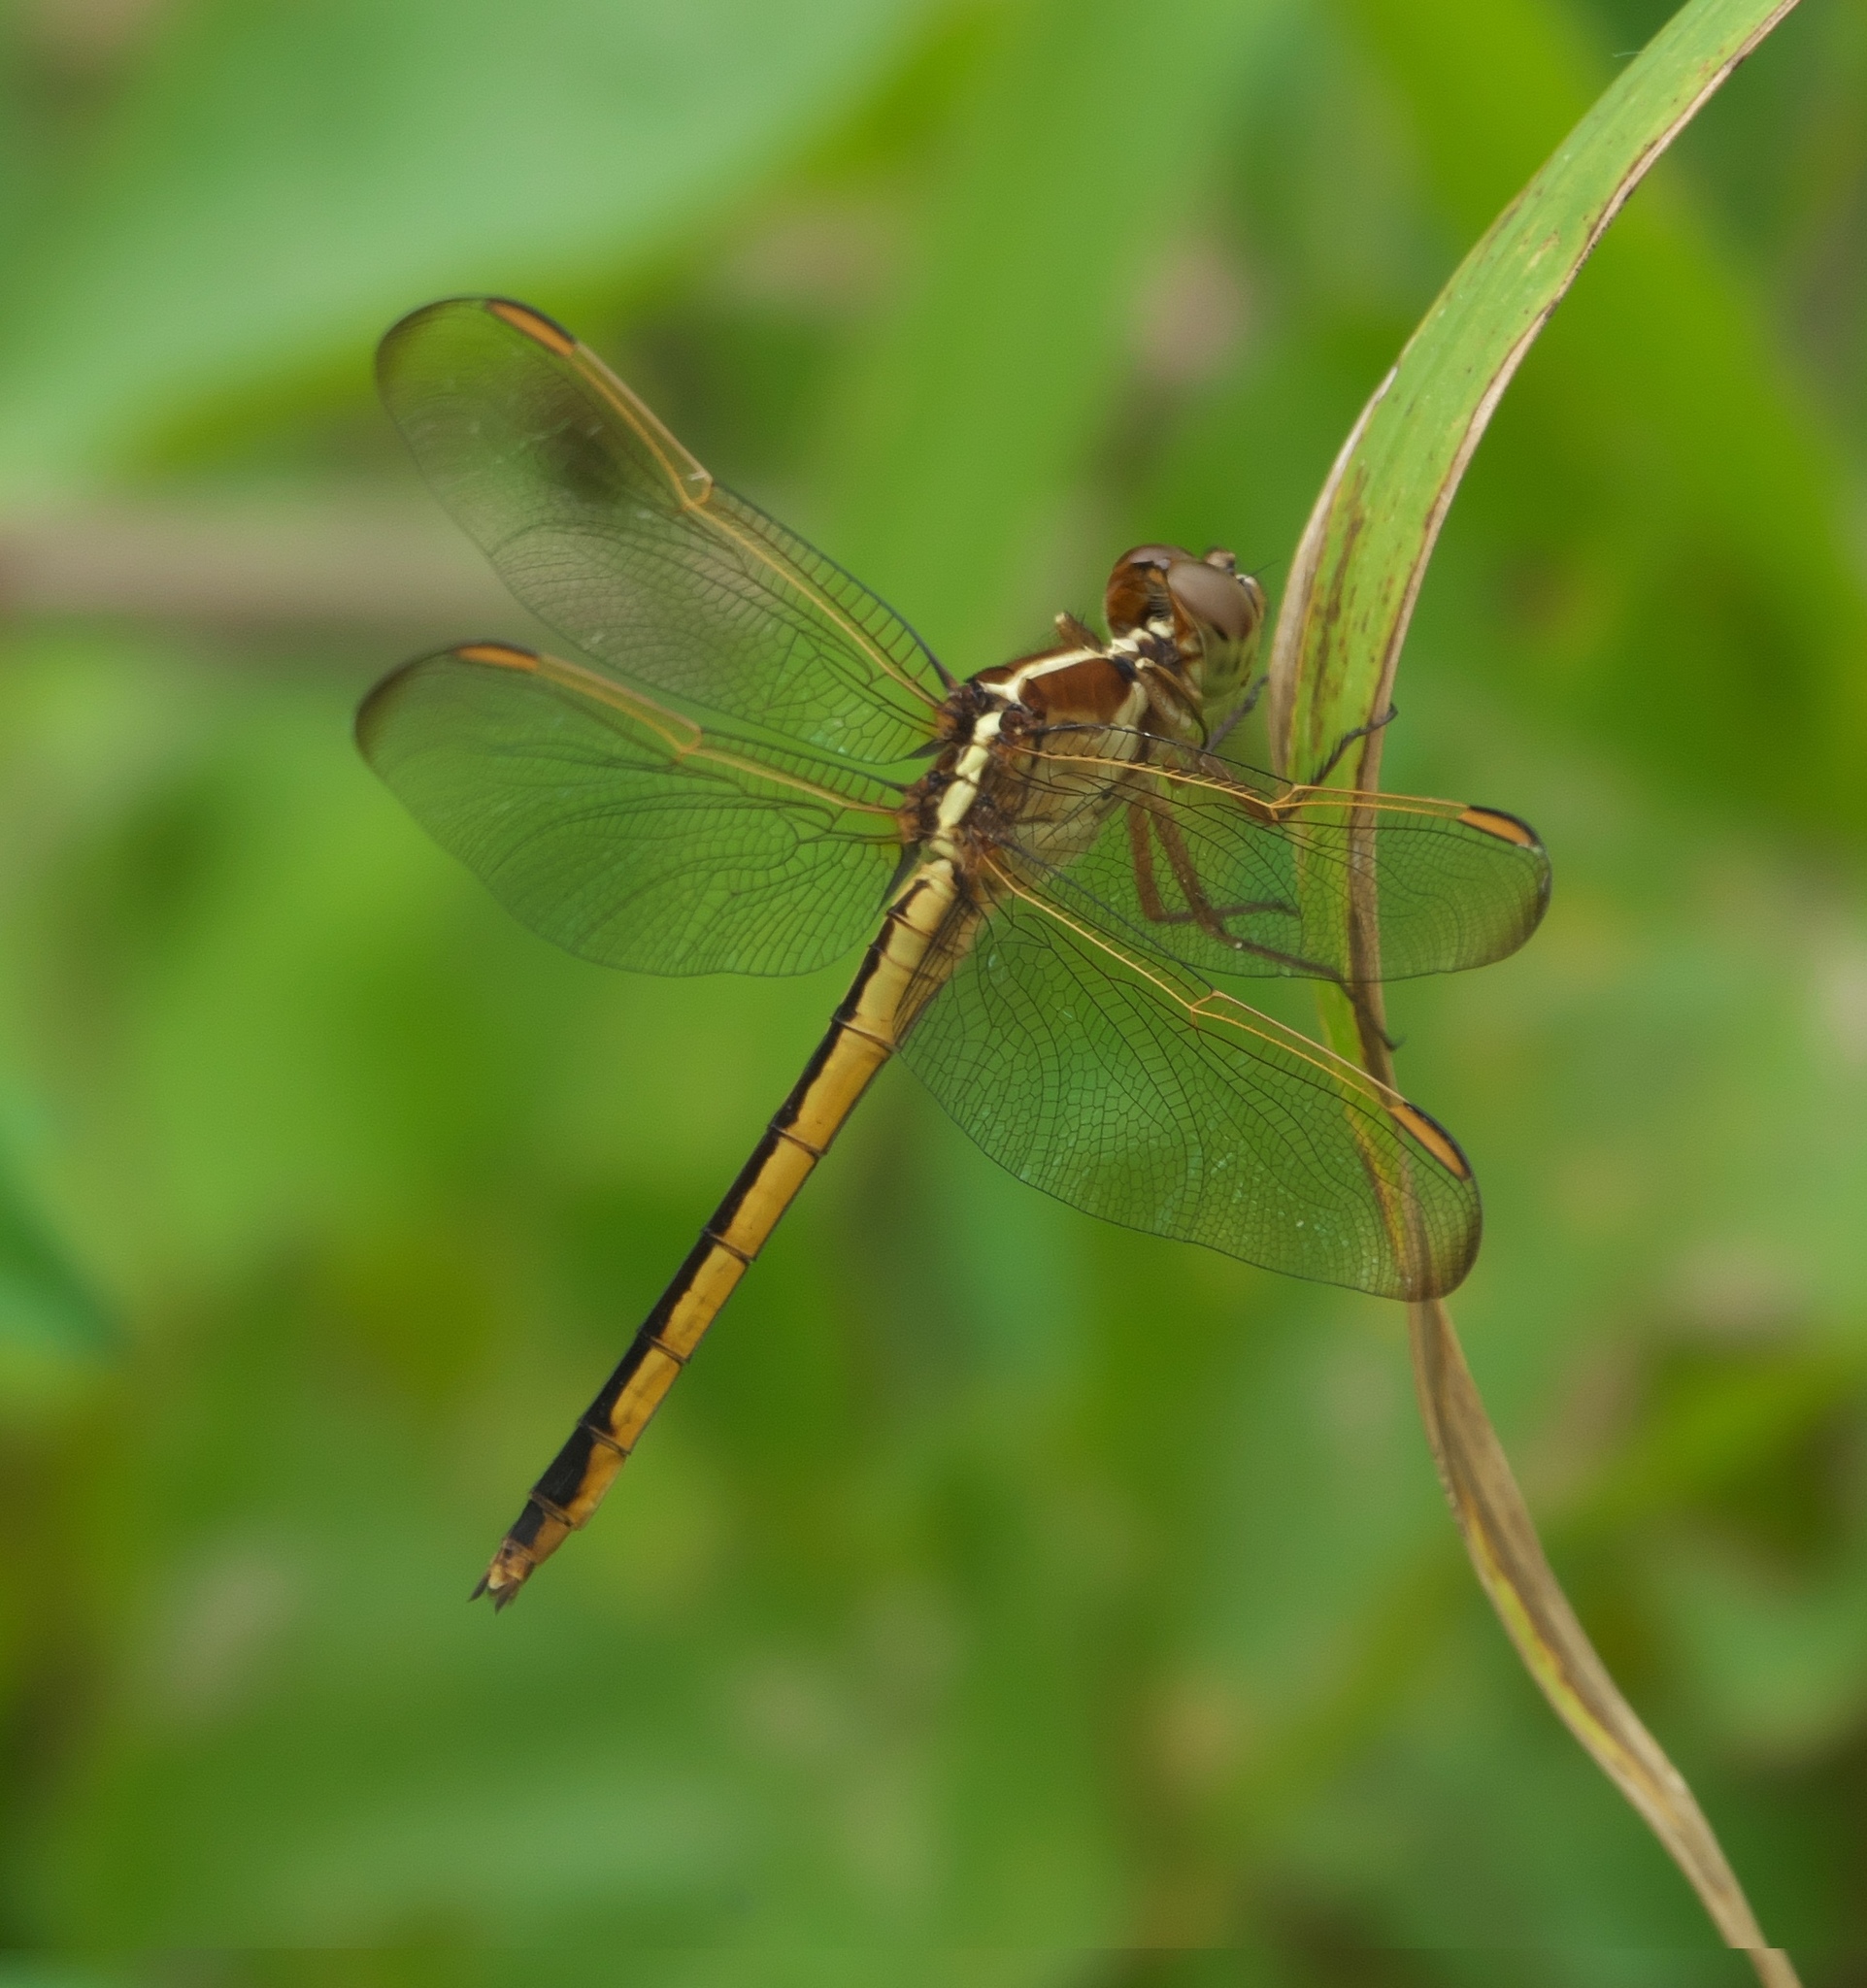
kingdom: Animalia
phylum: Arthropoda
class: Insecta
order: Odonata
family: Libellulidae
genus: Libellula
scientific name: Libellula needhami
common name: Needham's skimmer
